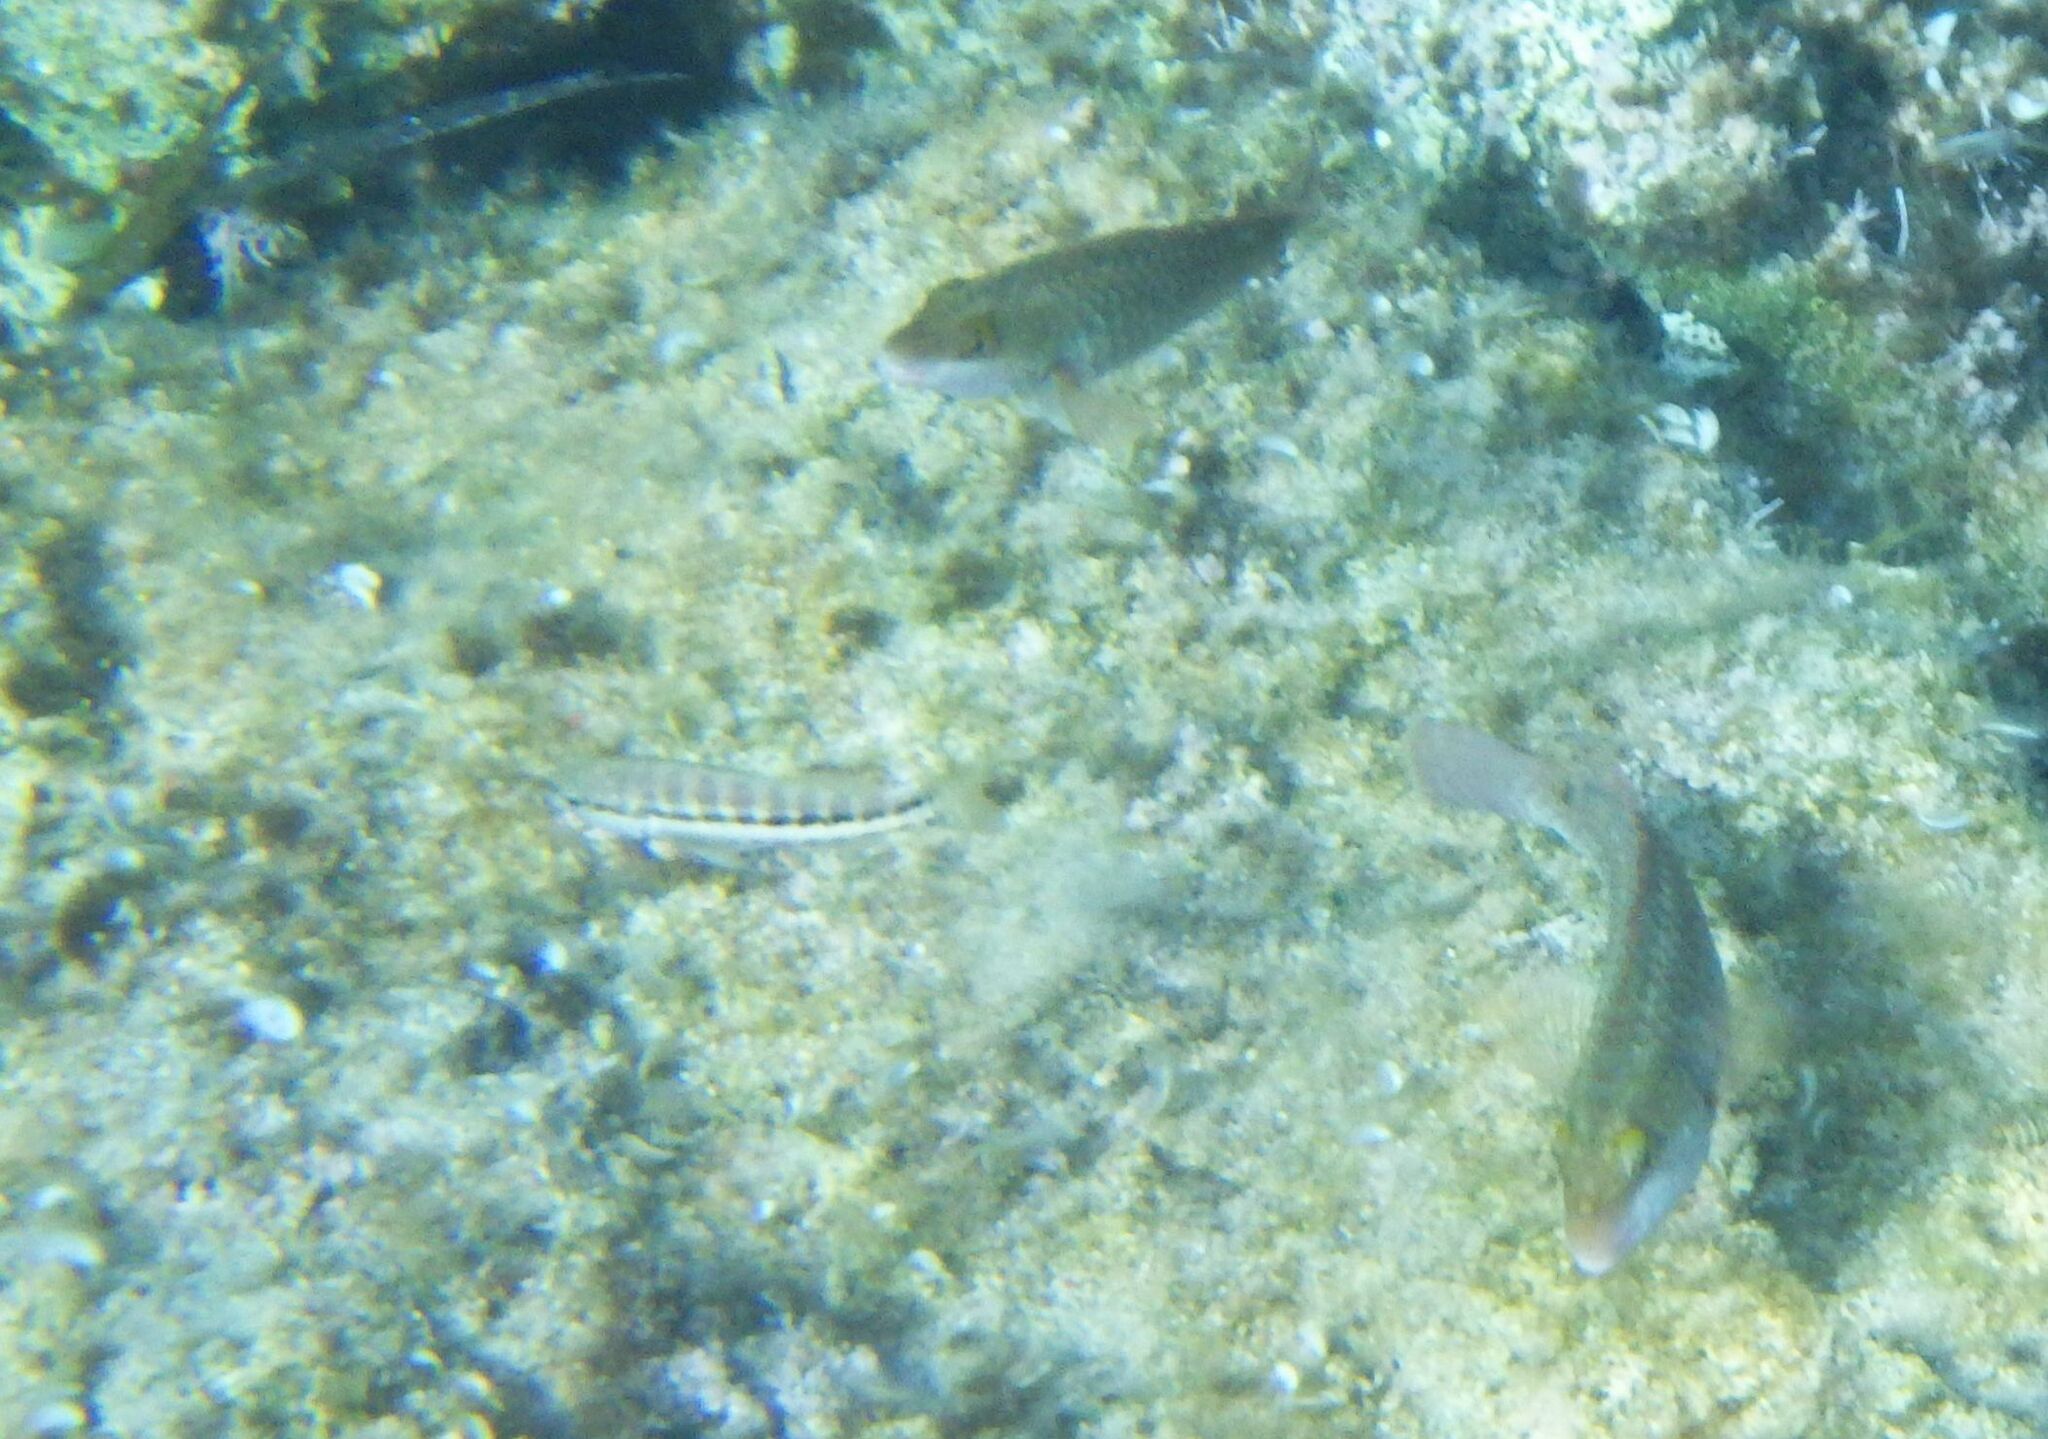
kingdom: Animalia
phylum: Chordata
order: Perciformes
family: Serranidae
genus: Serranus
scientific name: Serranus cabrilla
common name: Comber
